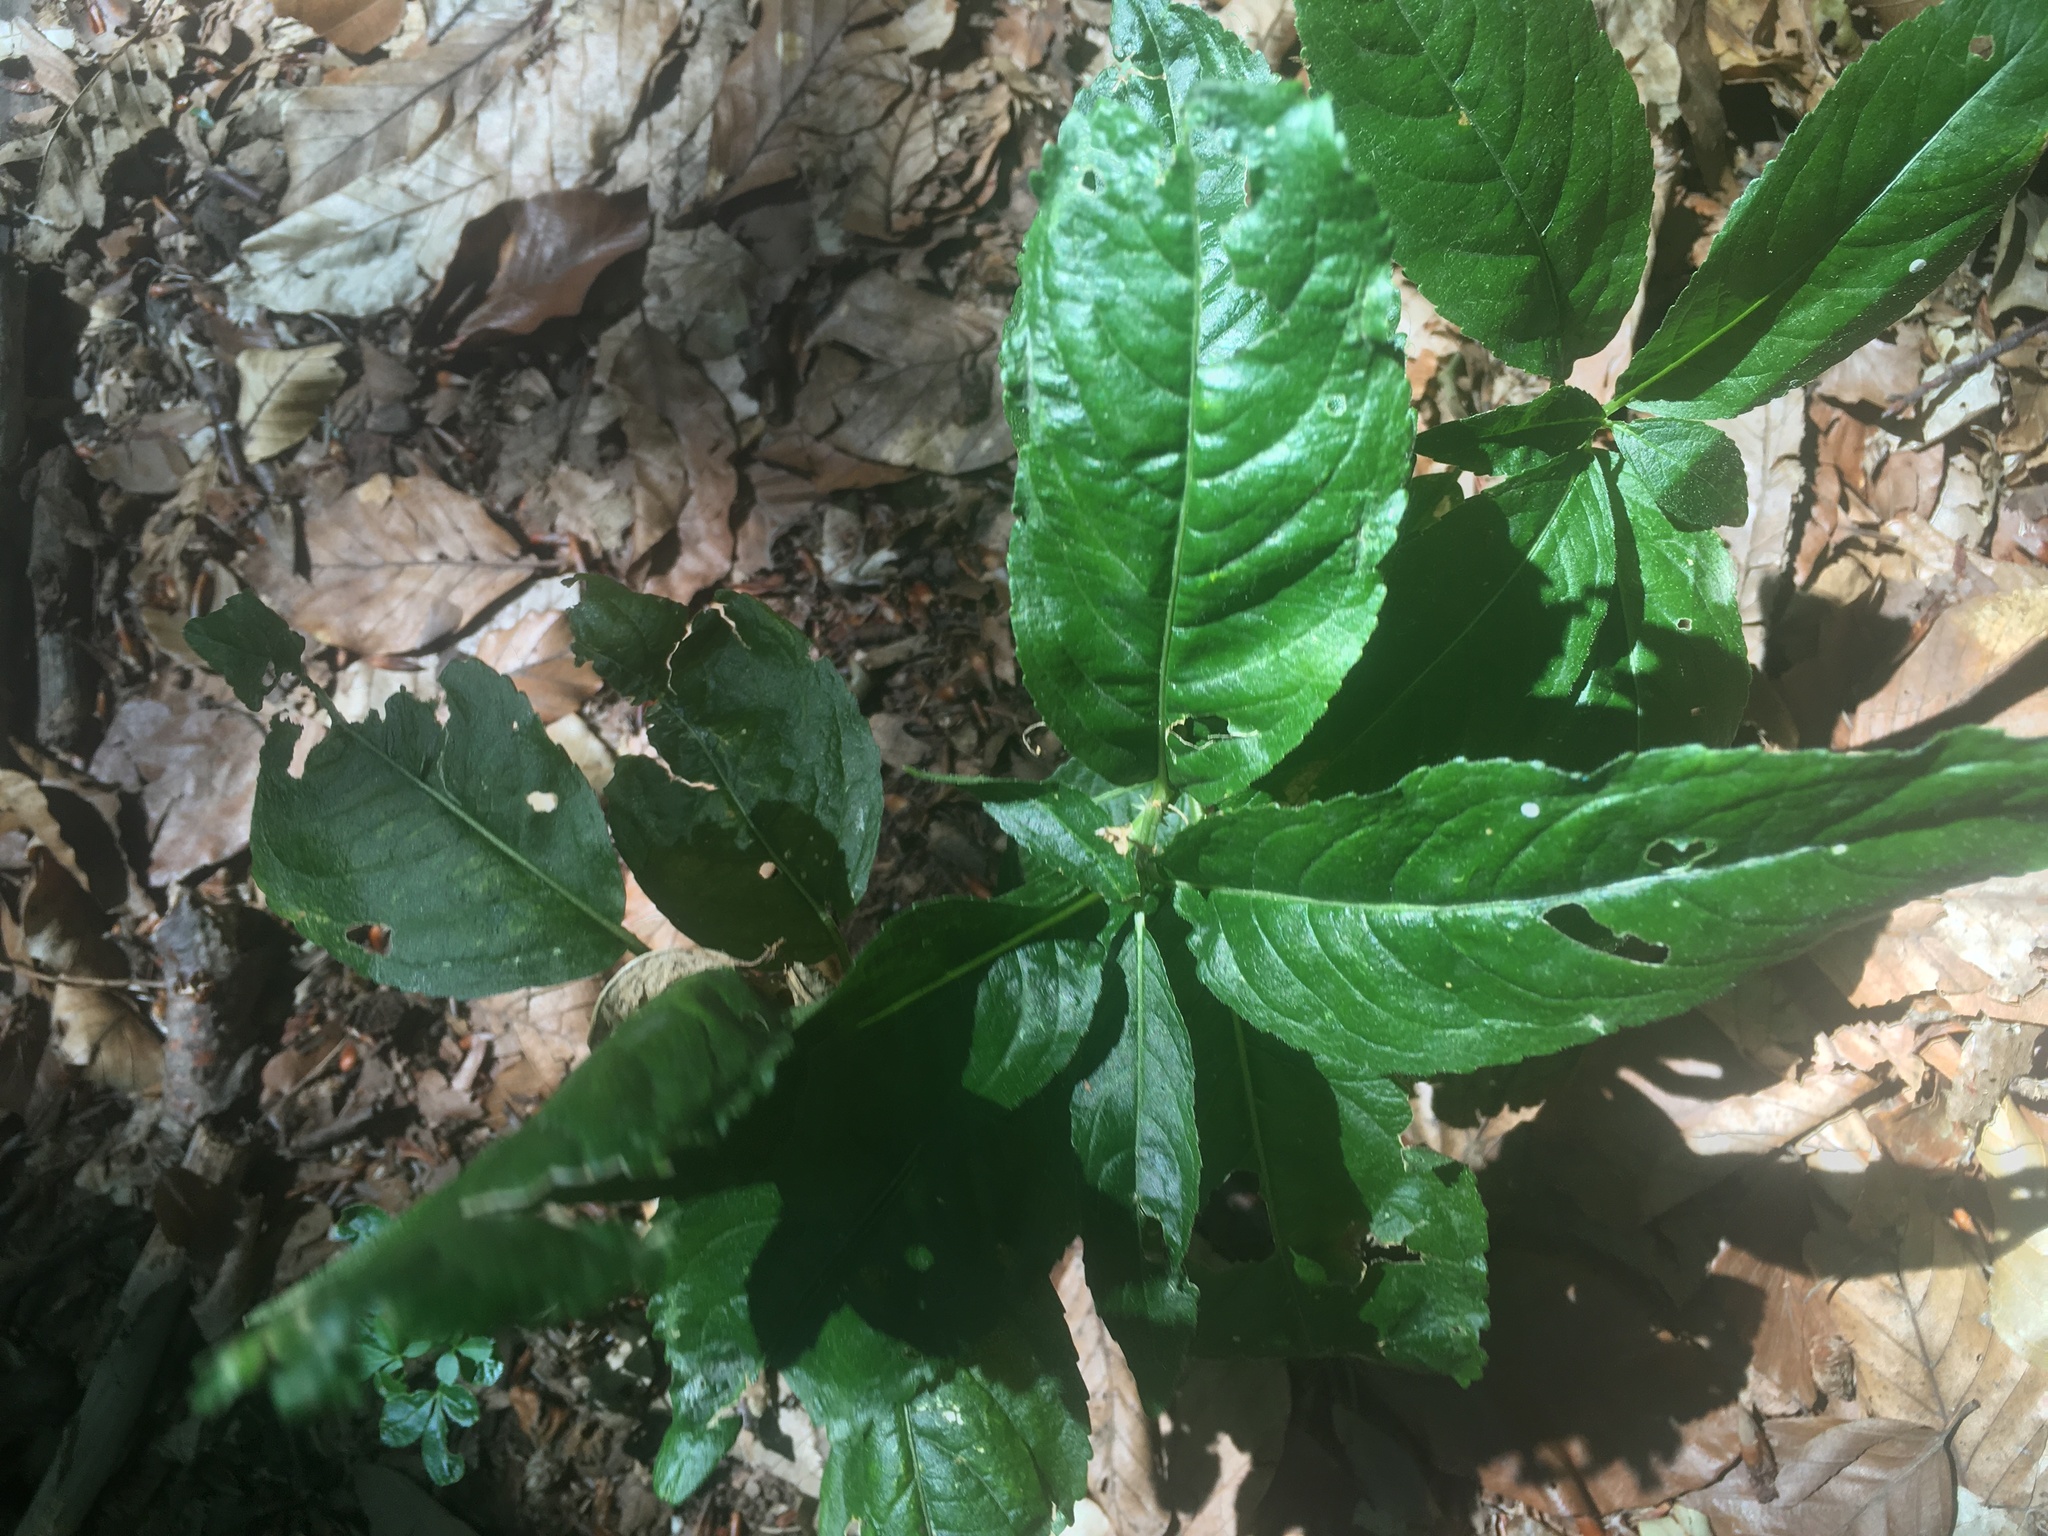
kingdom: Plantae
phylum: Tracheophyta
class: Magnoliopsida
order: Malpighiales
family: Euphorbiaceae
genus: Mercurialis
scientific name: Mercurialis perennis
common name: Dog mercury
